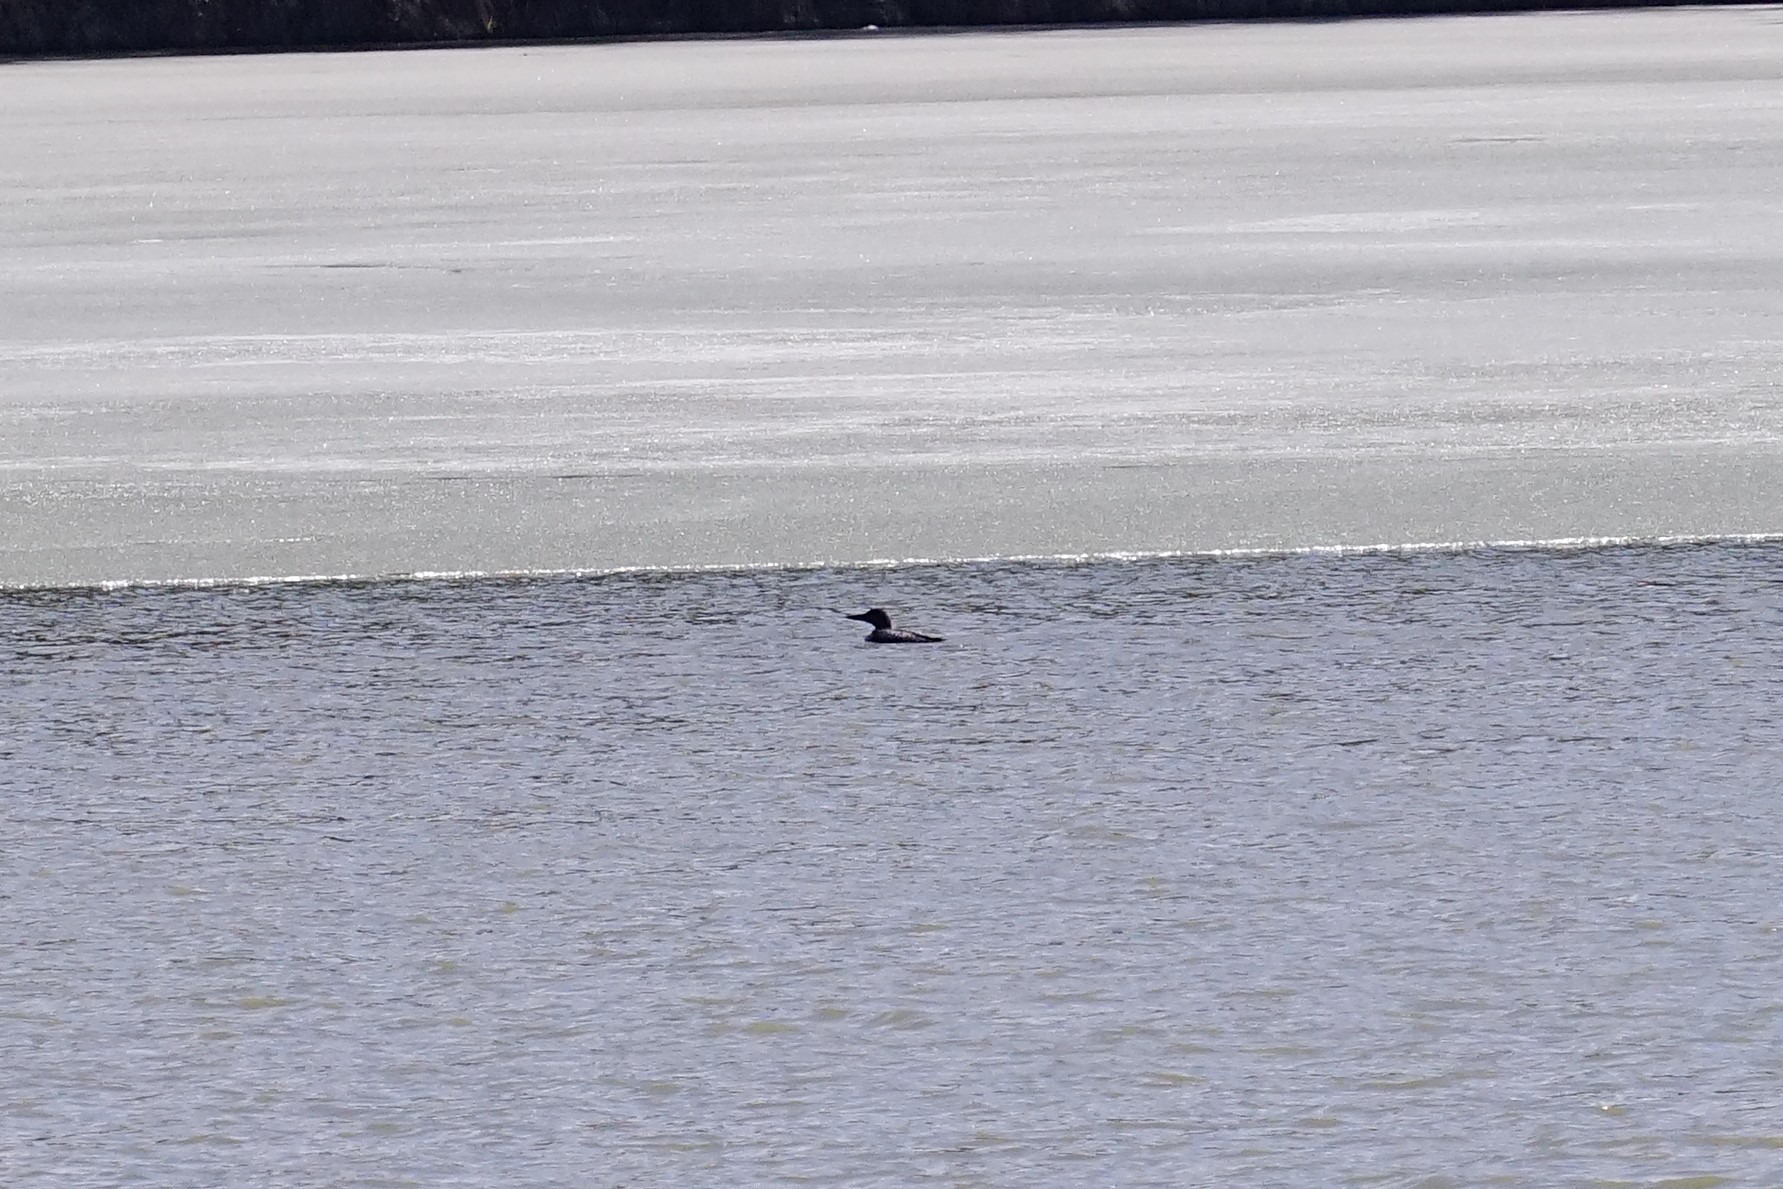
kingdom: Animalia
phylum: Chordata
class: Aves
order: Gaviiformes
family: Gaviidae
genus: Gavia
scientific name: Gavia immer
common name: Common loon
